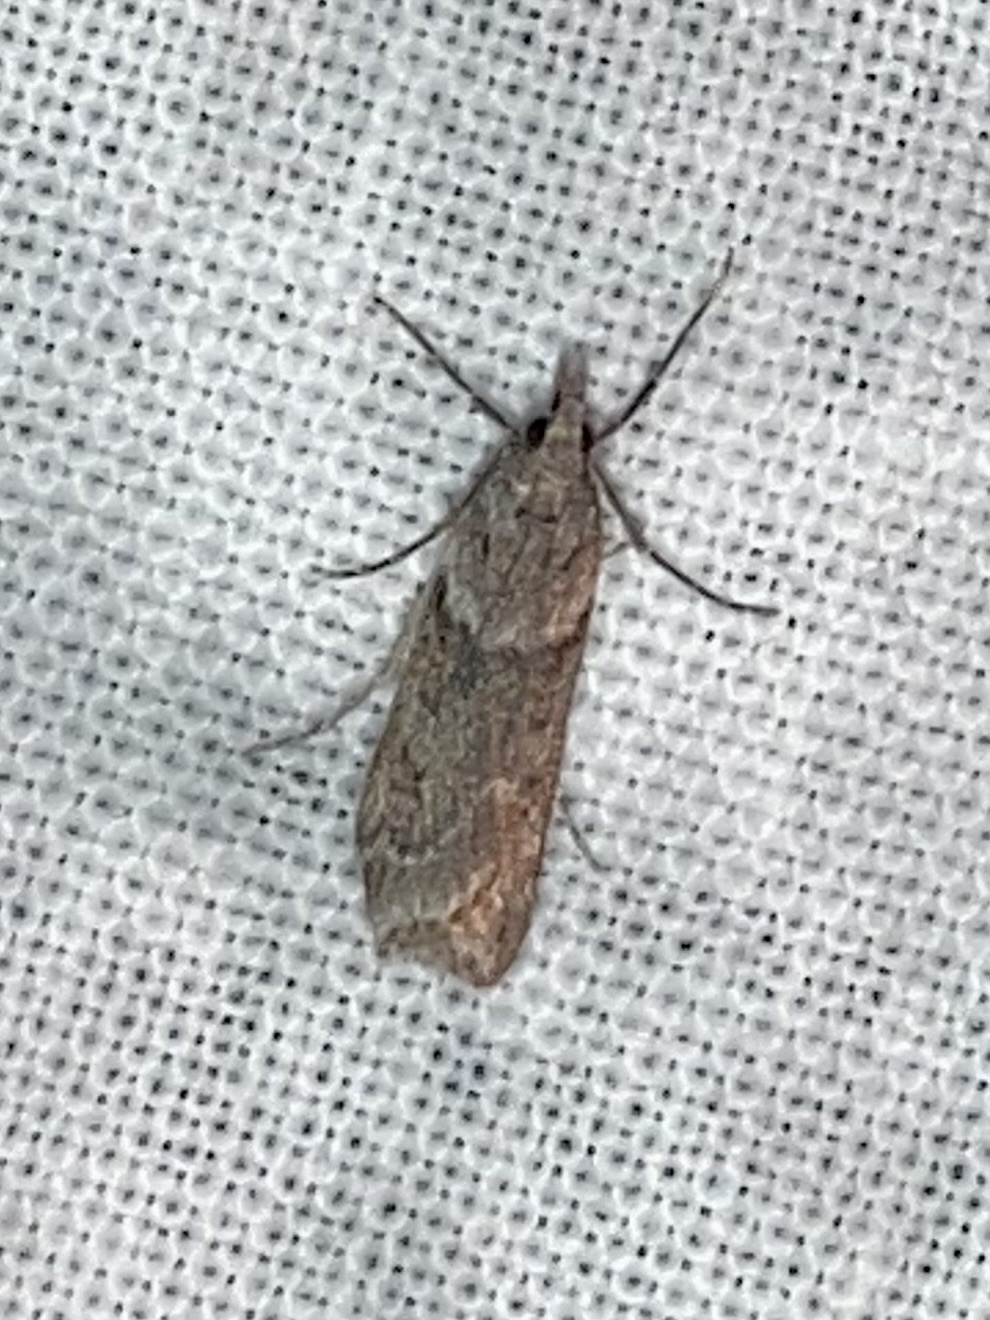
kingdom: Animalia
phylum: Arthropoda
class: Insecta
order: Lepidoptera
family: Crambidae
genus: Eudonia
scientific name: Eudonia angustea
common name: Narrow-winged grey
